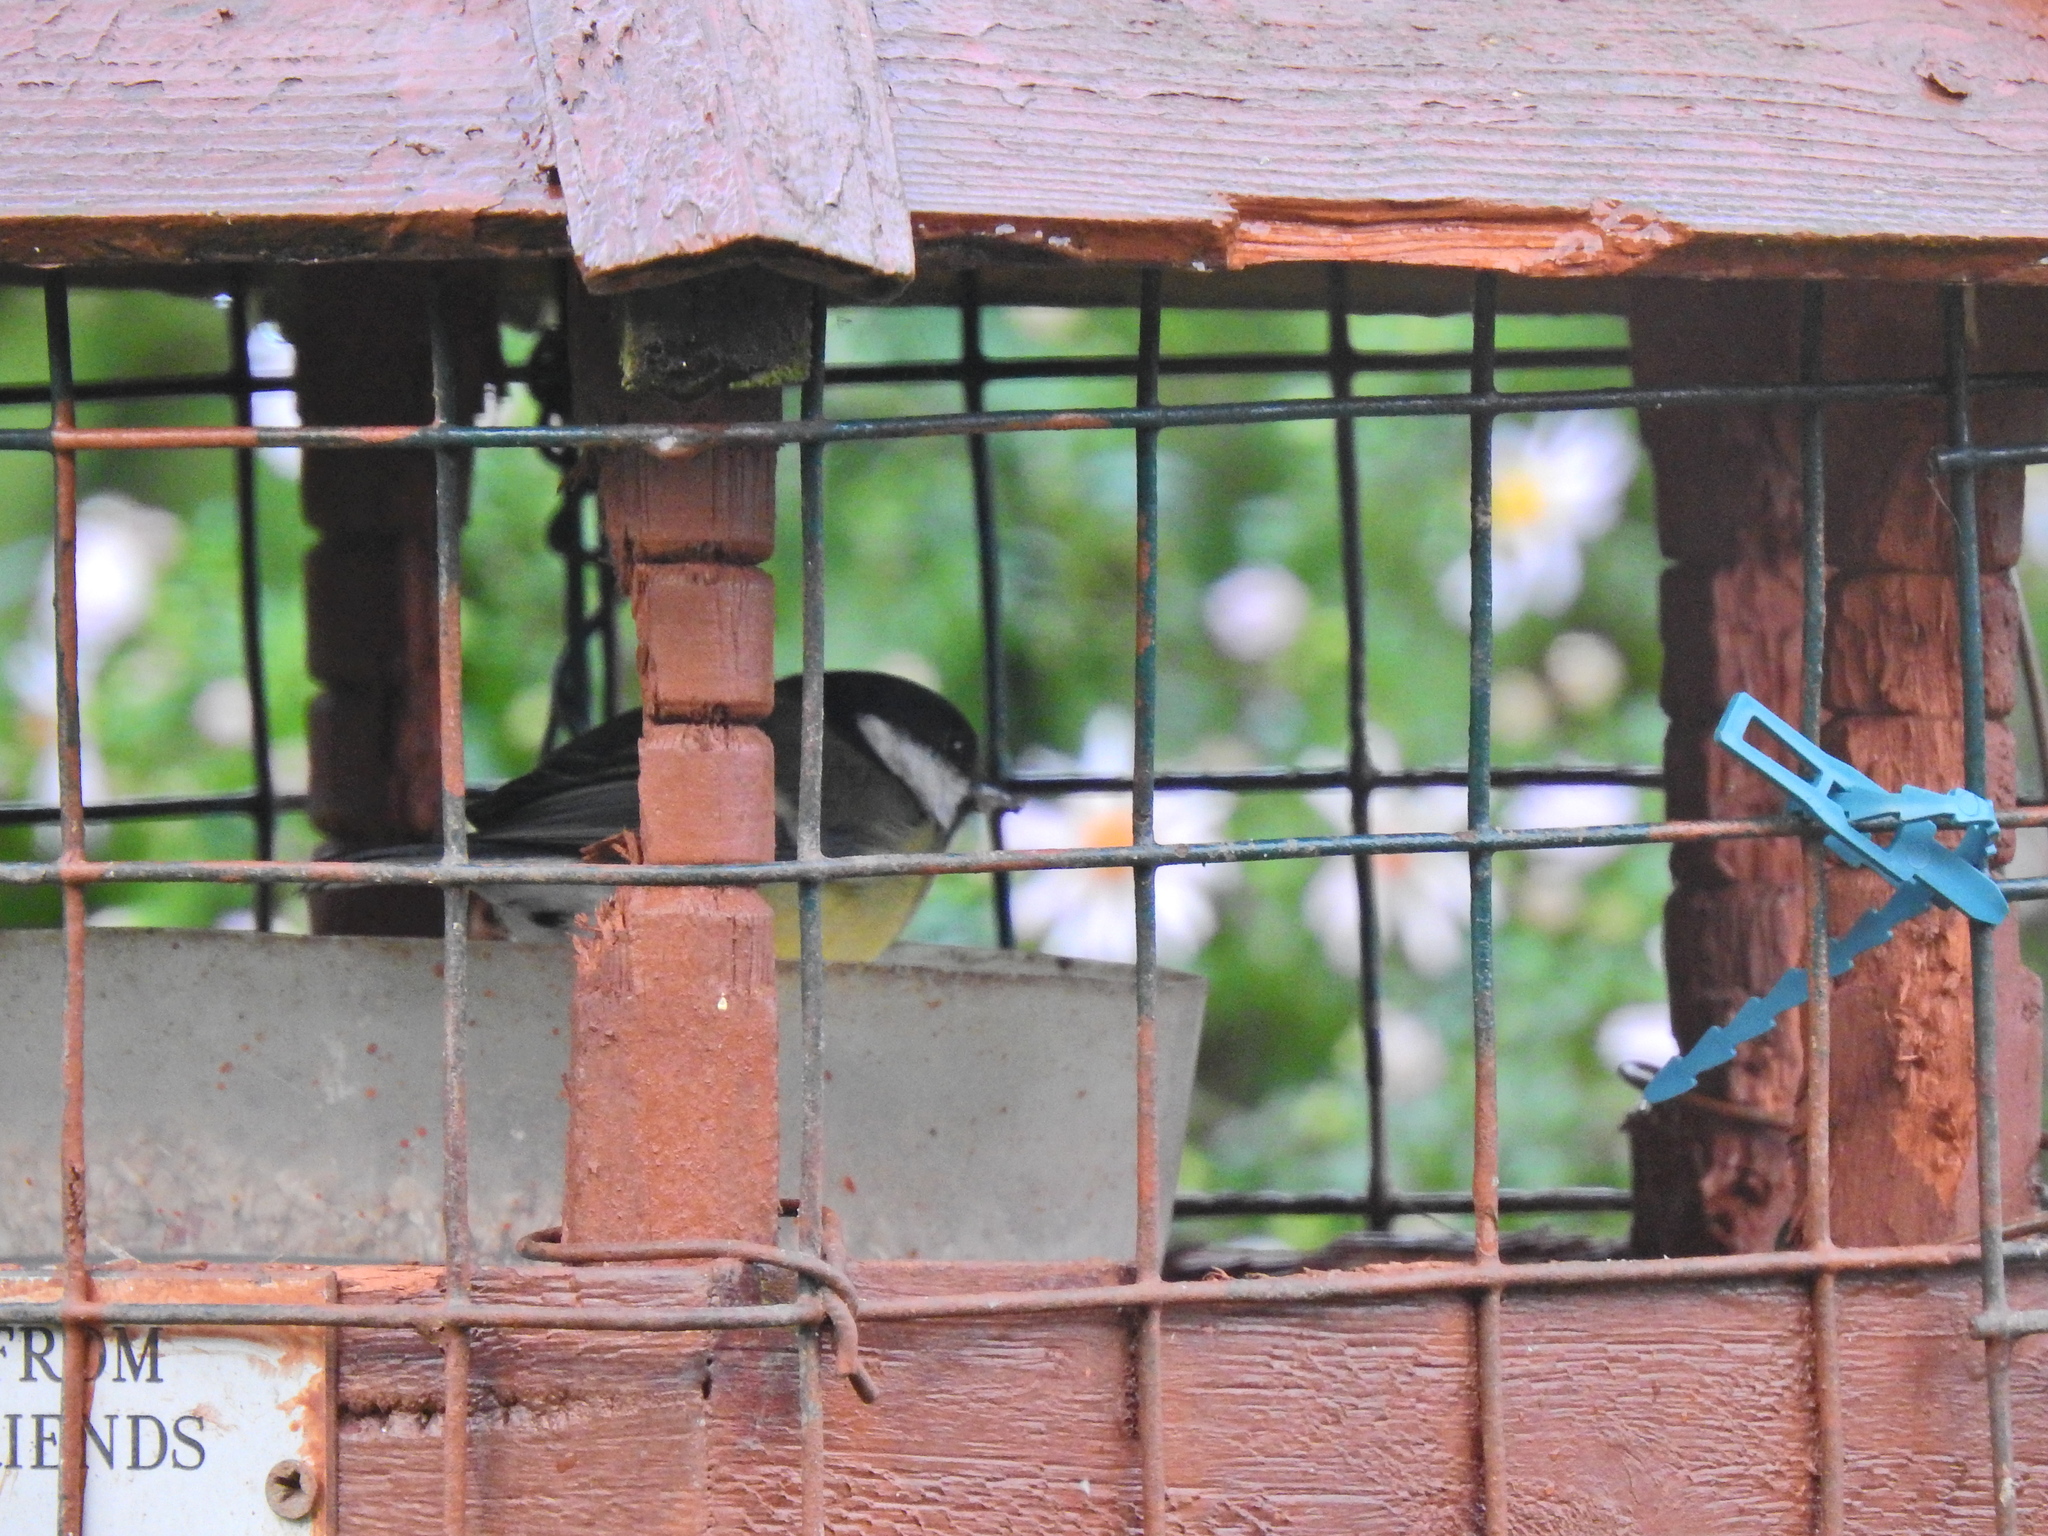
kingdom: Animalia
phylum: Chordata
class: Aves
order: Passeriformes
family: Paridae
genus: Parus
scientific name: Parus major
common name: Great tit
